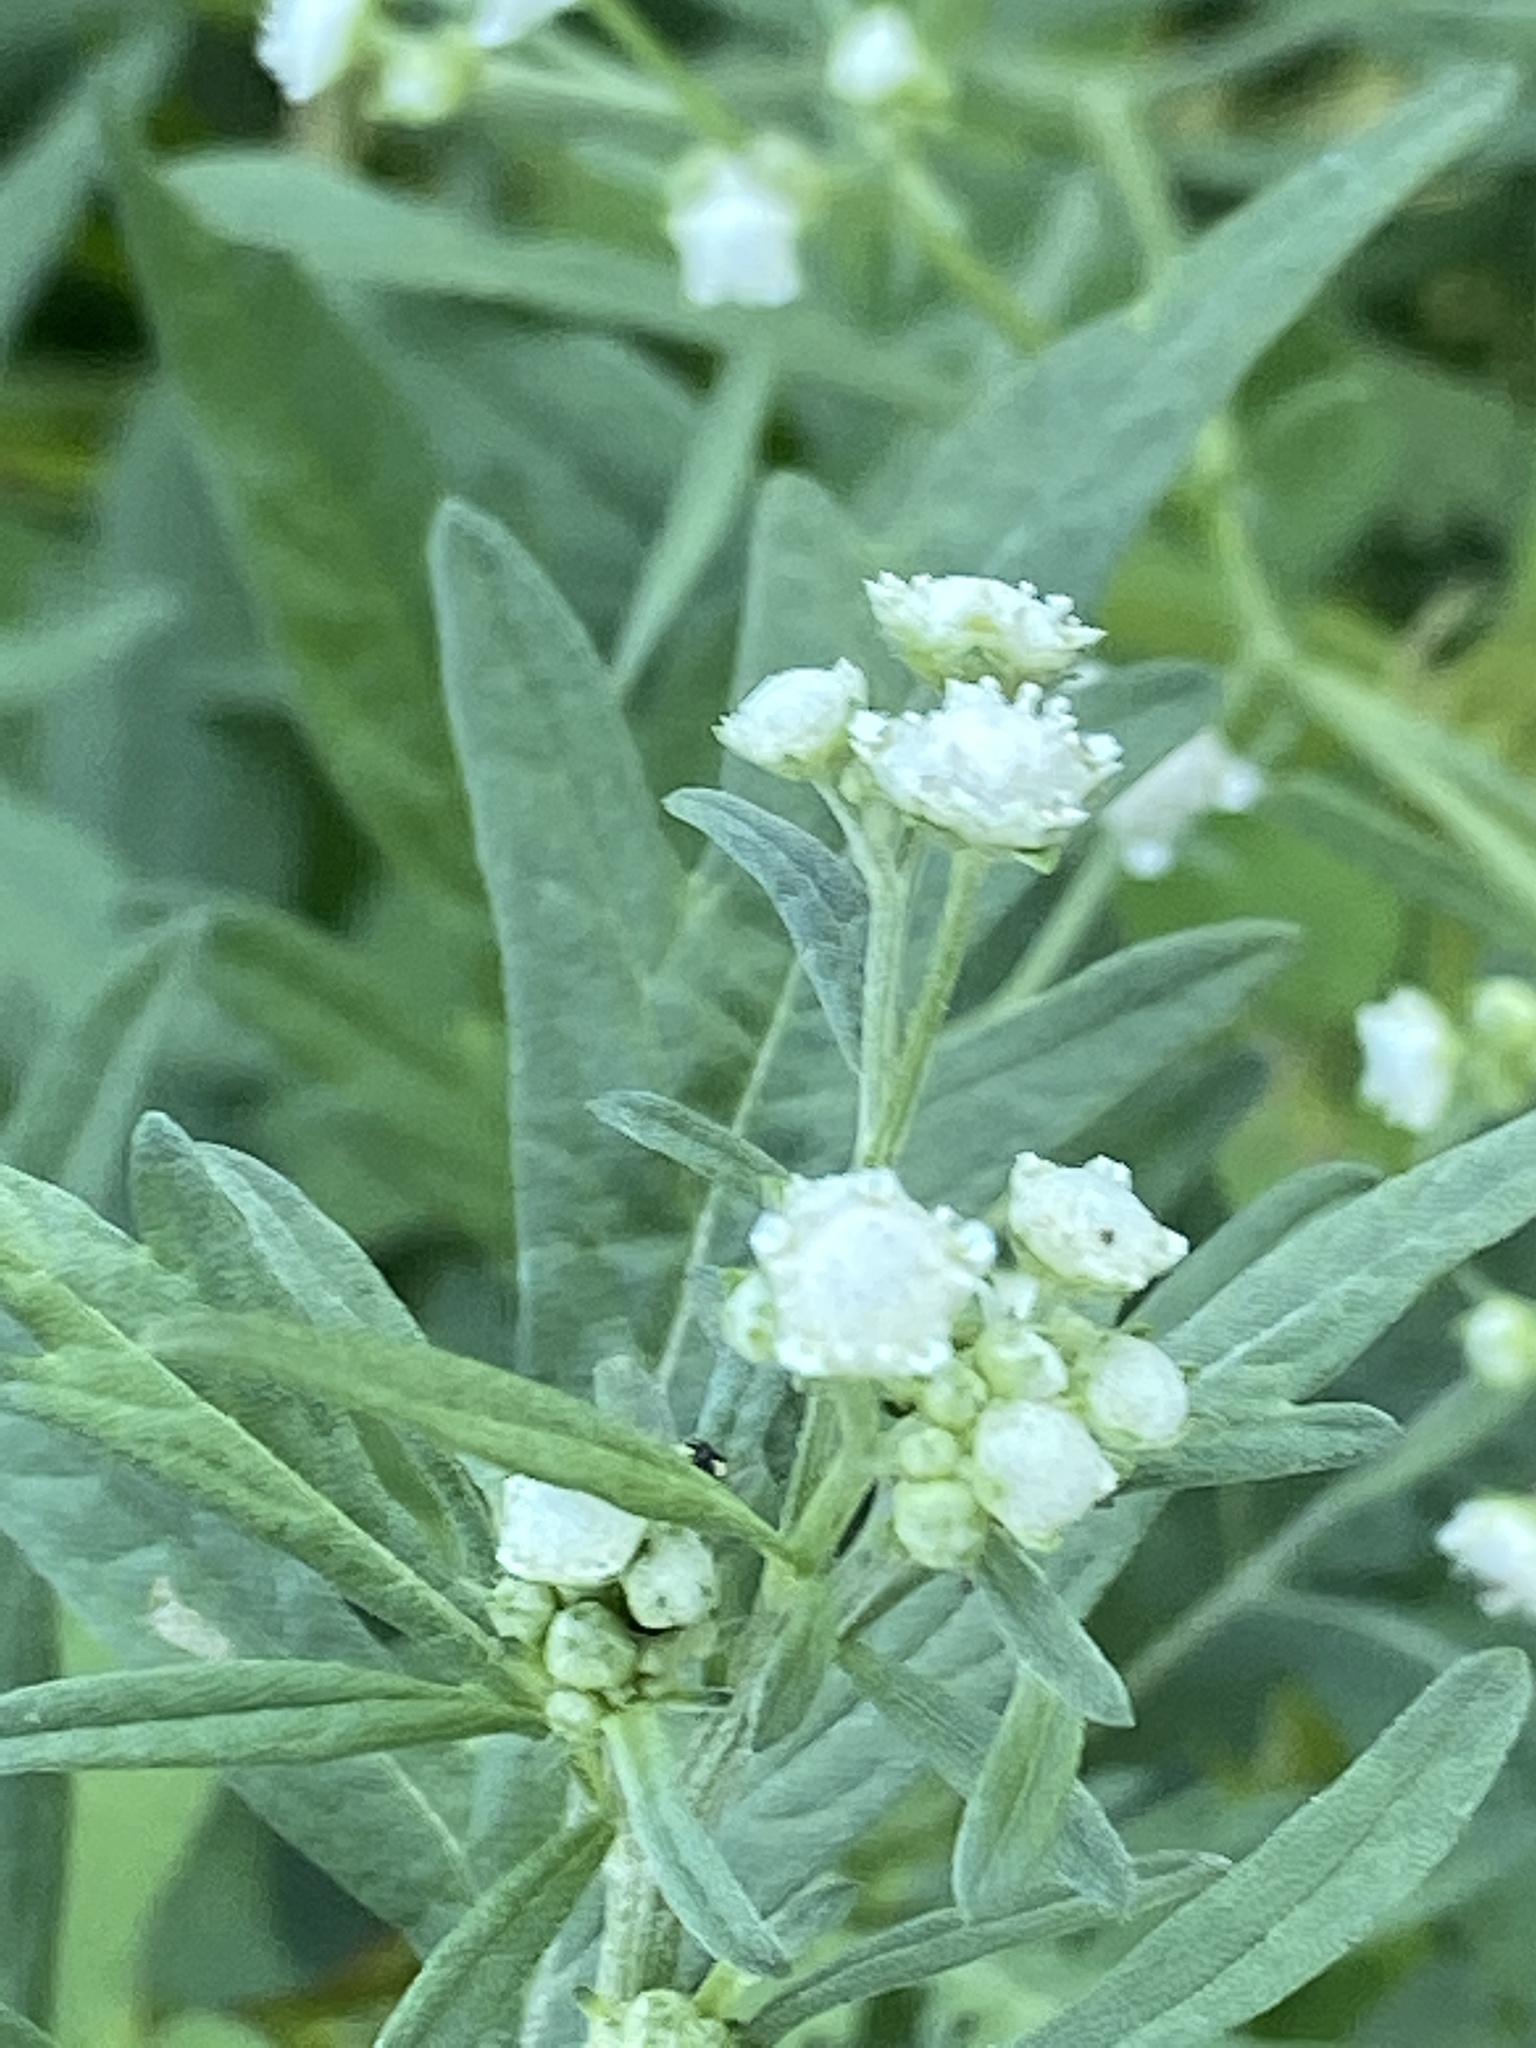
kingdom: Plantae
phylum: Tracheophyta
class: Magnoliopsida
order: Asterales
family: Asteraceae
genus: Parthenium
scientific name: Parthenium hysterophorus
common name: Santa maria feverfew
